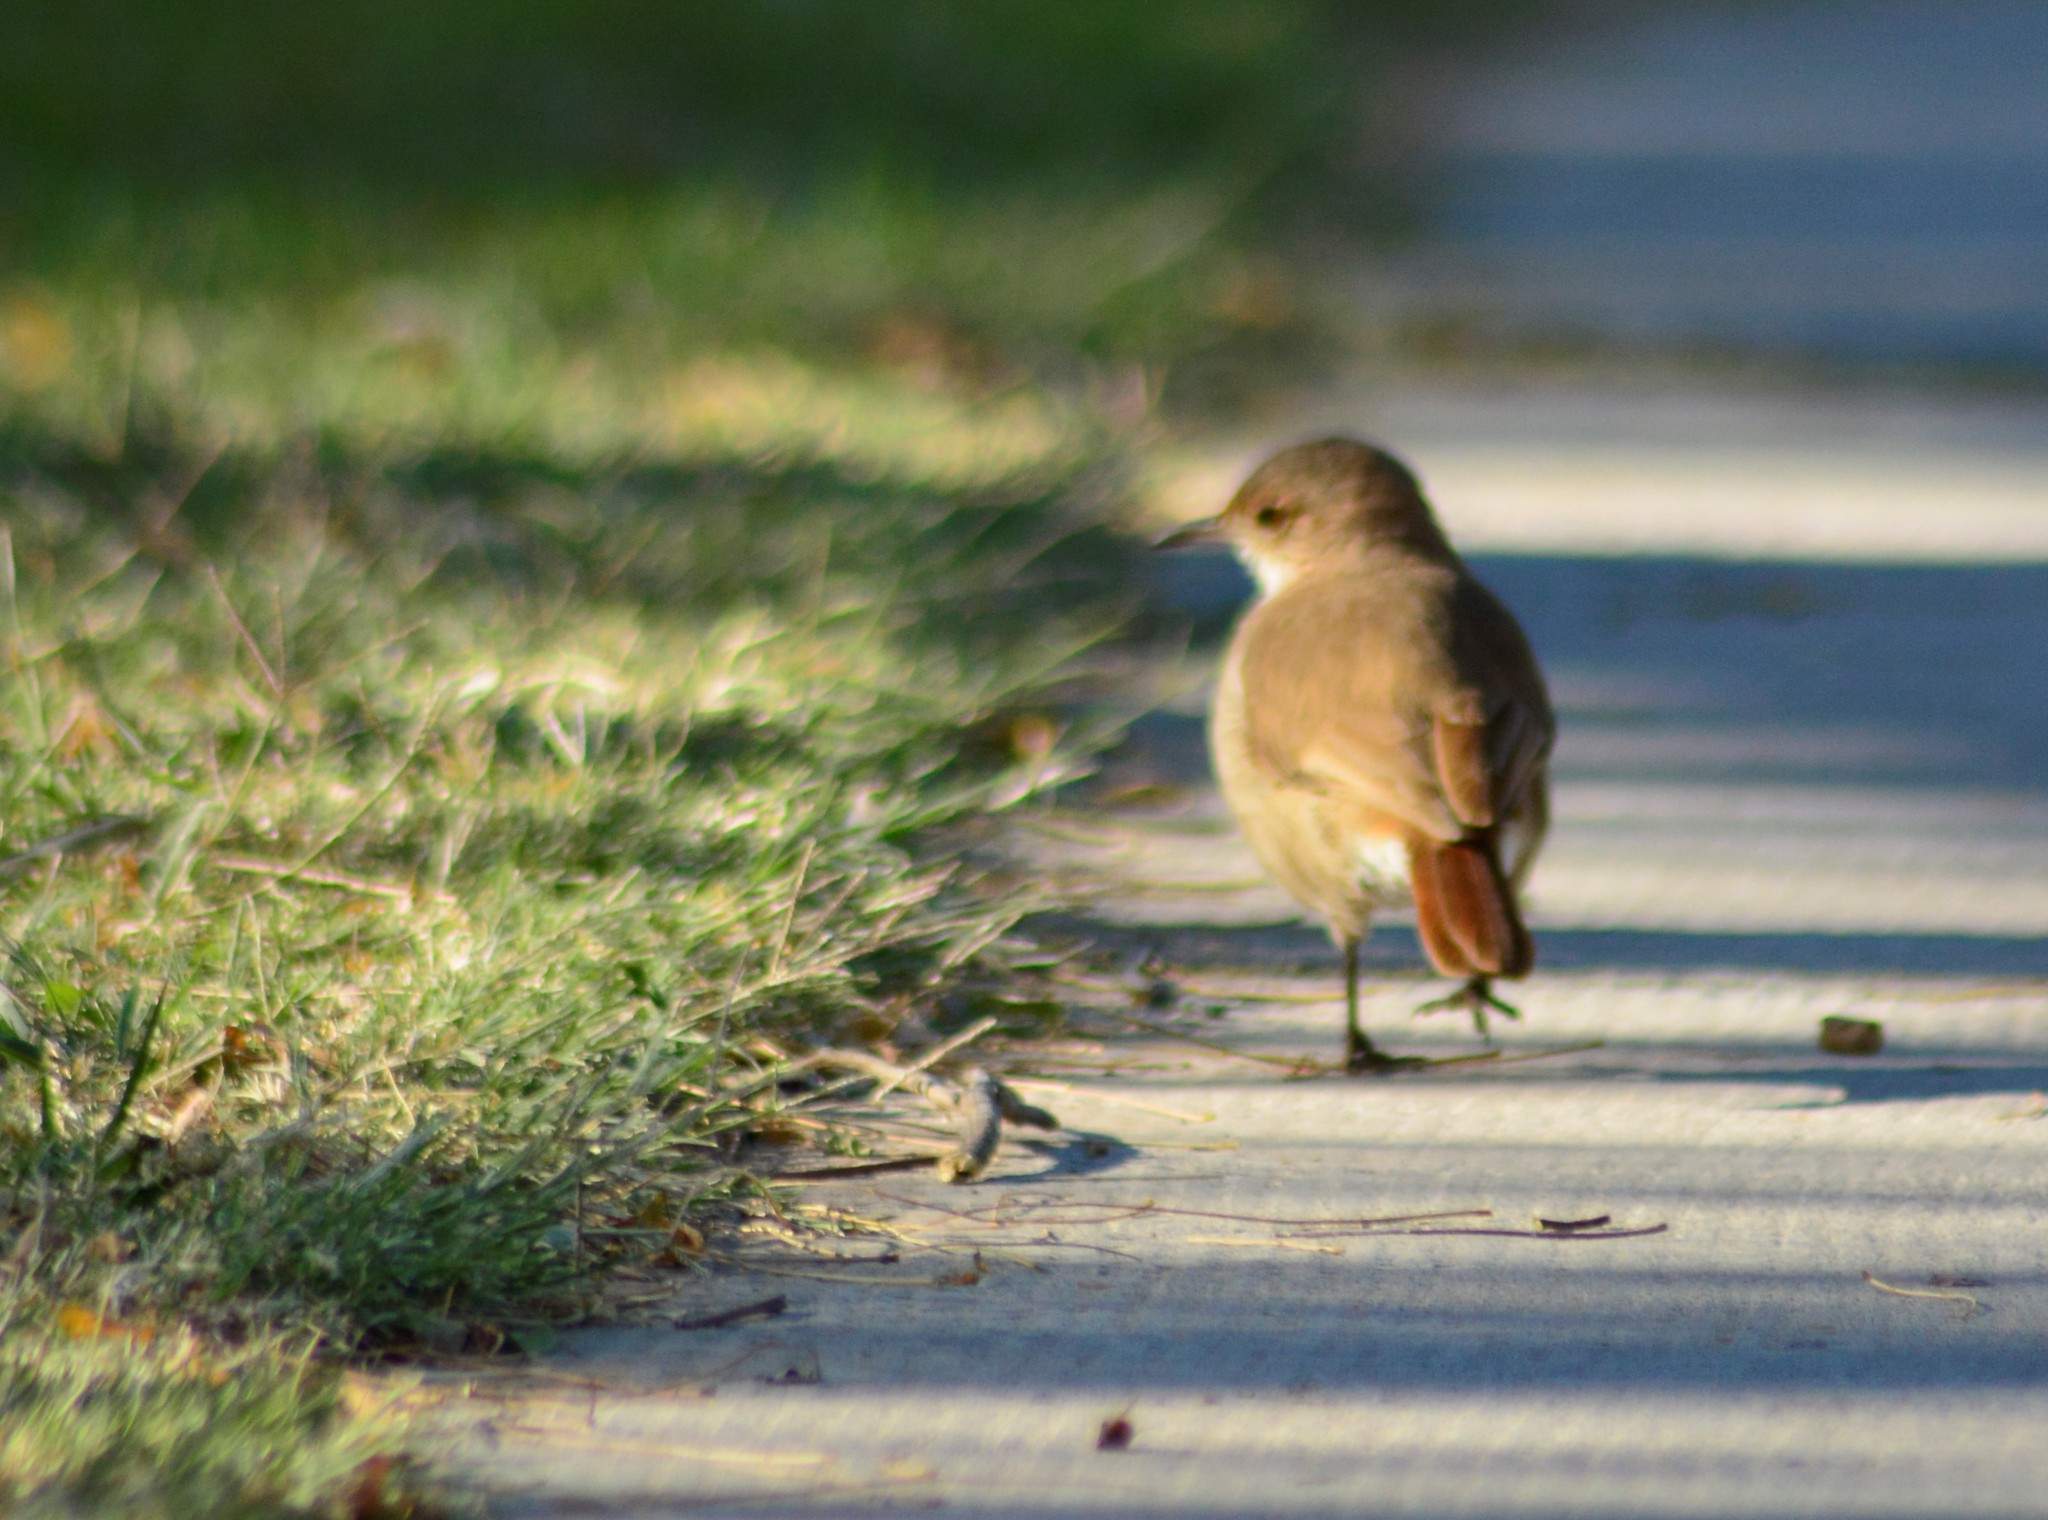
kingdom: Animalia
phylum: Chordata
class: Aves
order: Passeriformes
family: Furnariidae
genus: Furnarius
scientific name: Furnarius rufus
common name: Rufous hornero
